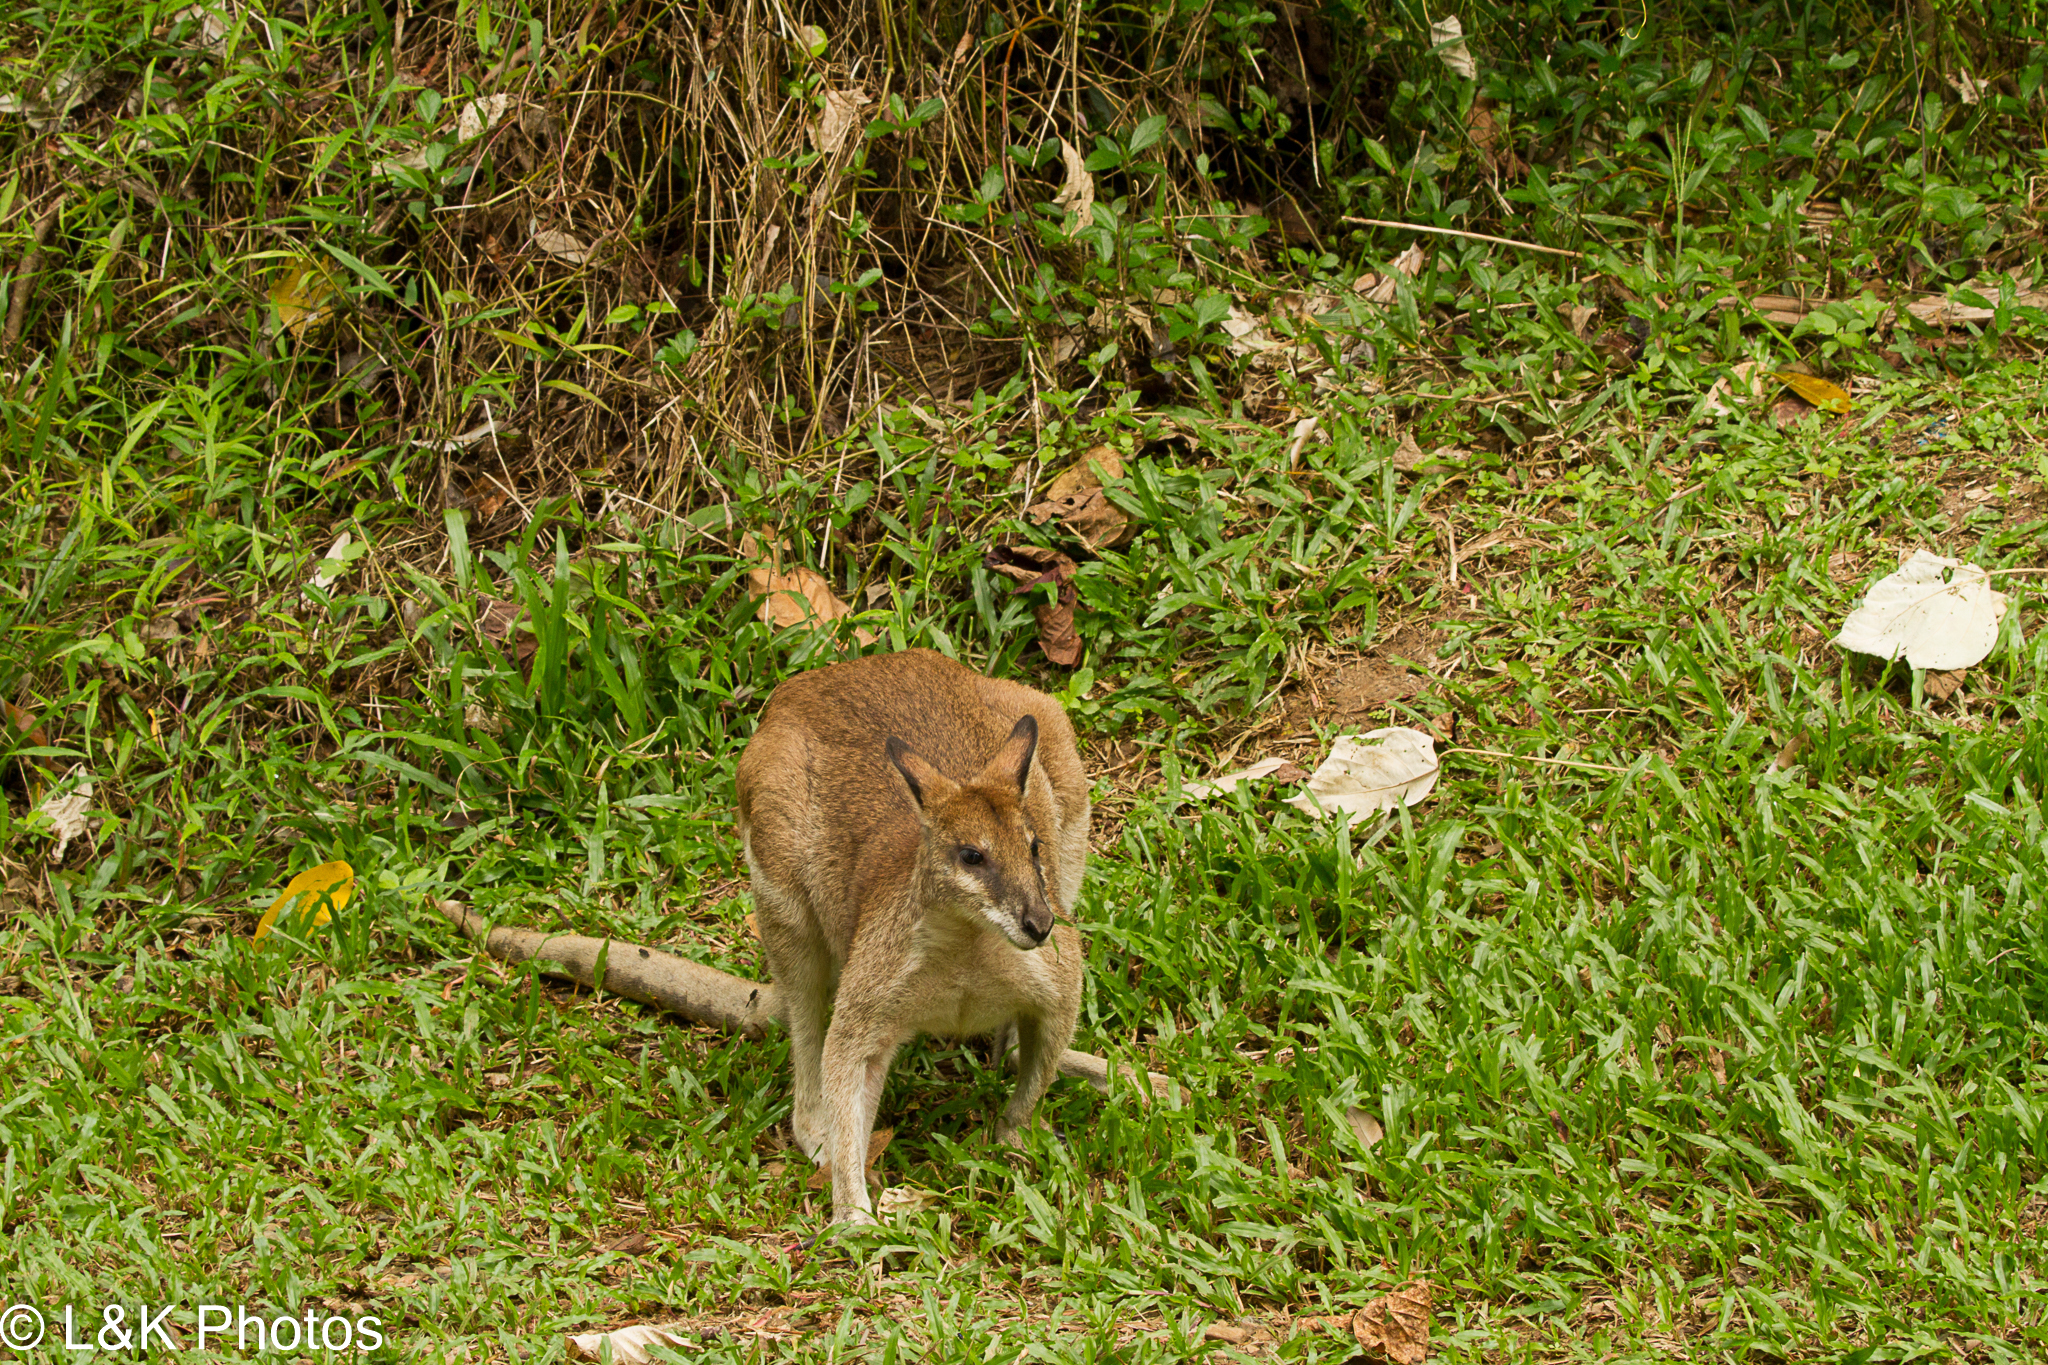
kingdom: Animalia
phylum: Chordata
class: Mammalia
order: Diprotodontia
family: Macropodidae
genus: Macropus
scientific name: Macropus agilis
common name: Agile wallaby
